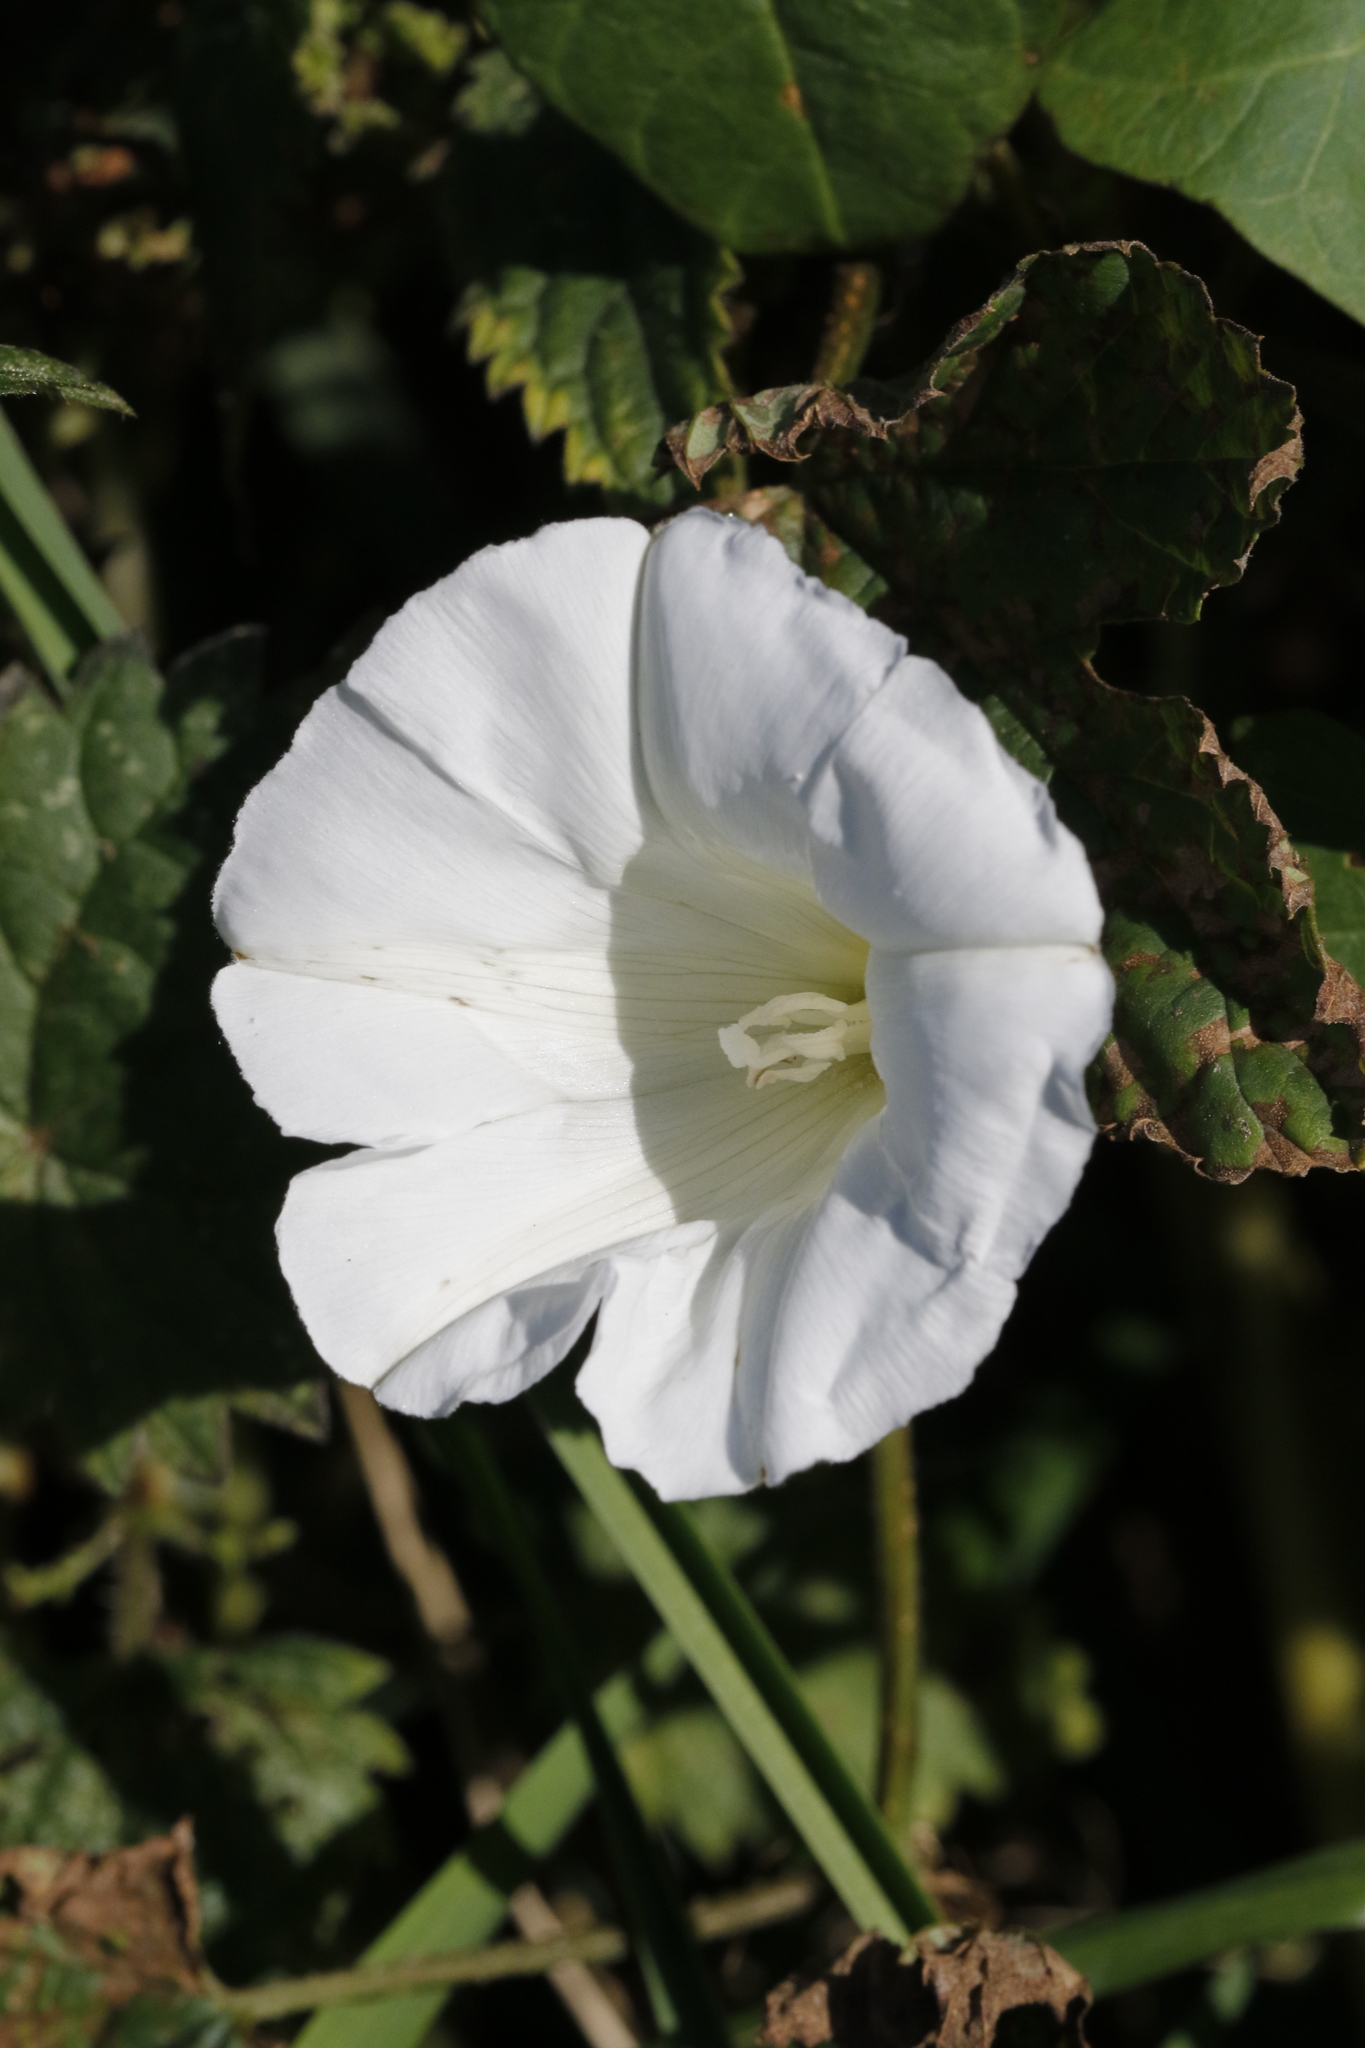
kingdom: Plantae
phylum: Tracheophyta
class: Magnoliopsida
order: Solanales
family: Convolvulaceae
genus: Calystegia
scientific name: Calystegia sepium
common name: Hedge bindweed
